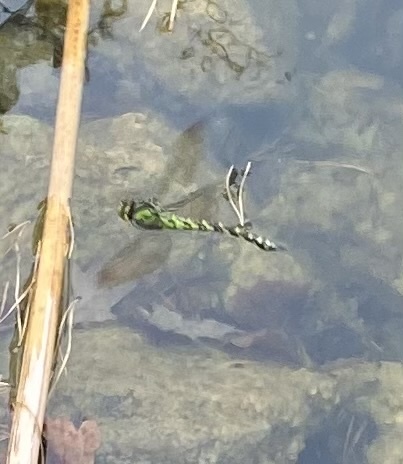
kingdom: Animalia
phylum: Arthropoda
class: Insecta
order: Odonata
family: Aeshnidae
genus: Aeshna
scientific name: Aeshna cyanea
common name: Southern hawker
